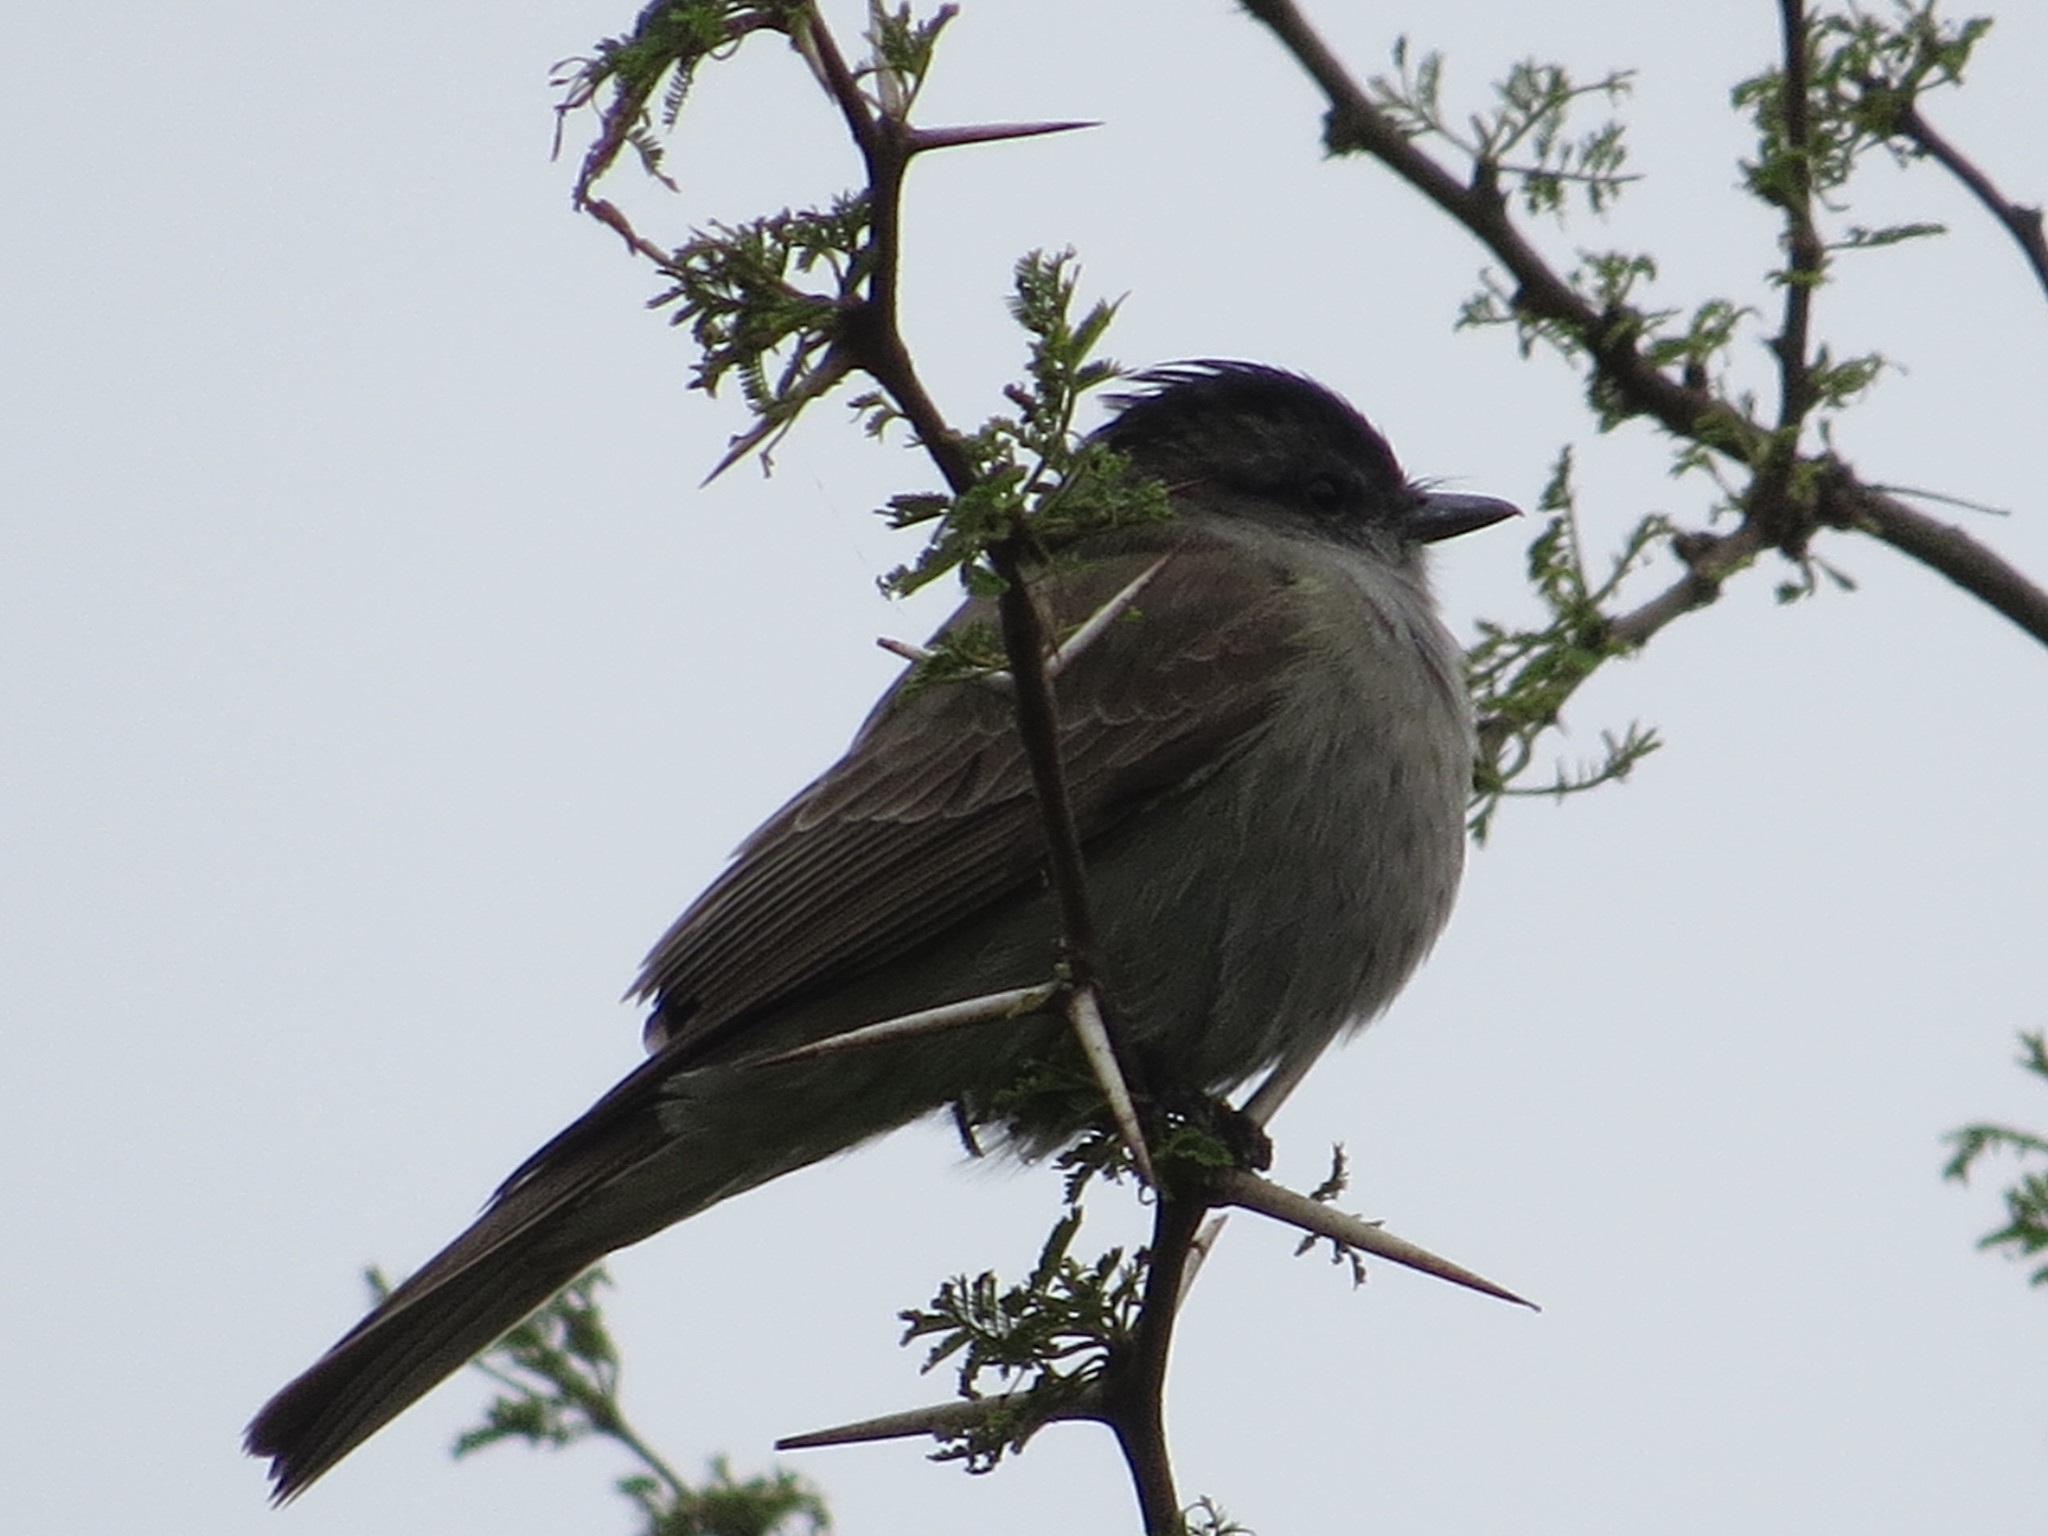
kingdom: Animalia
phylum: Chordata
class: Aves
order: Passeriformes
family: Tyrannidae
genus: Empidonomus
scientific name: Empidonomus aurantioatrocristatus
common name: Crowned slaty flycatcher
